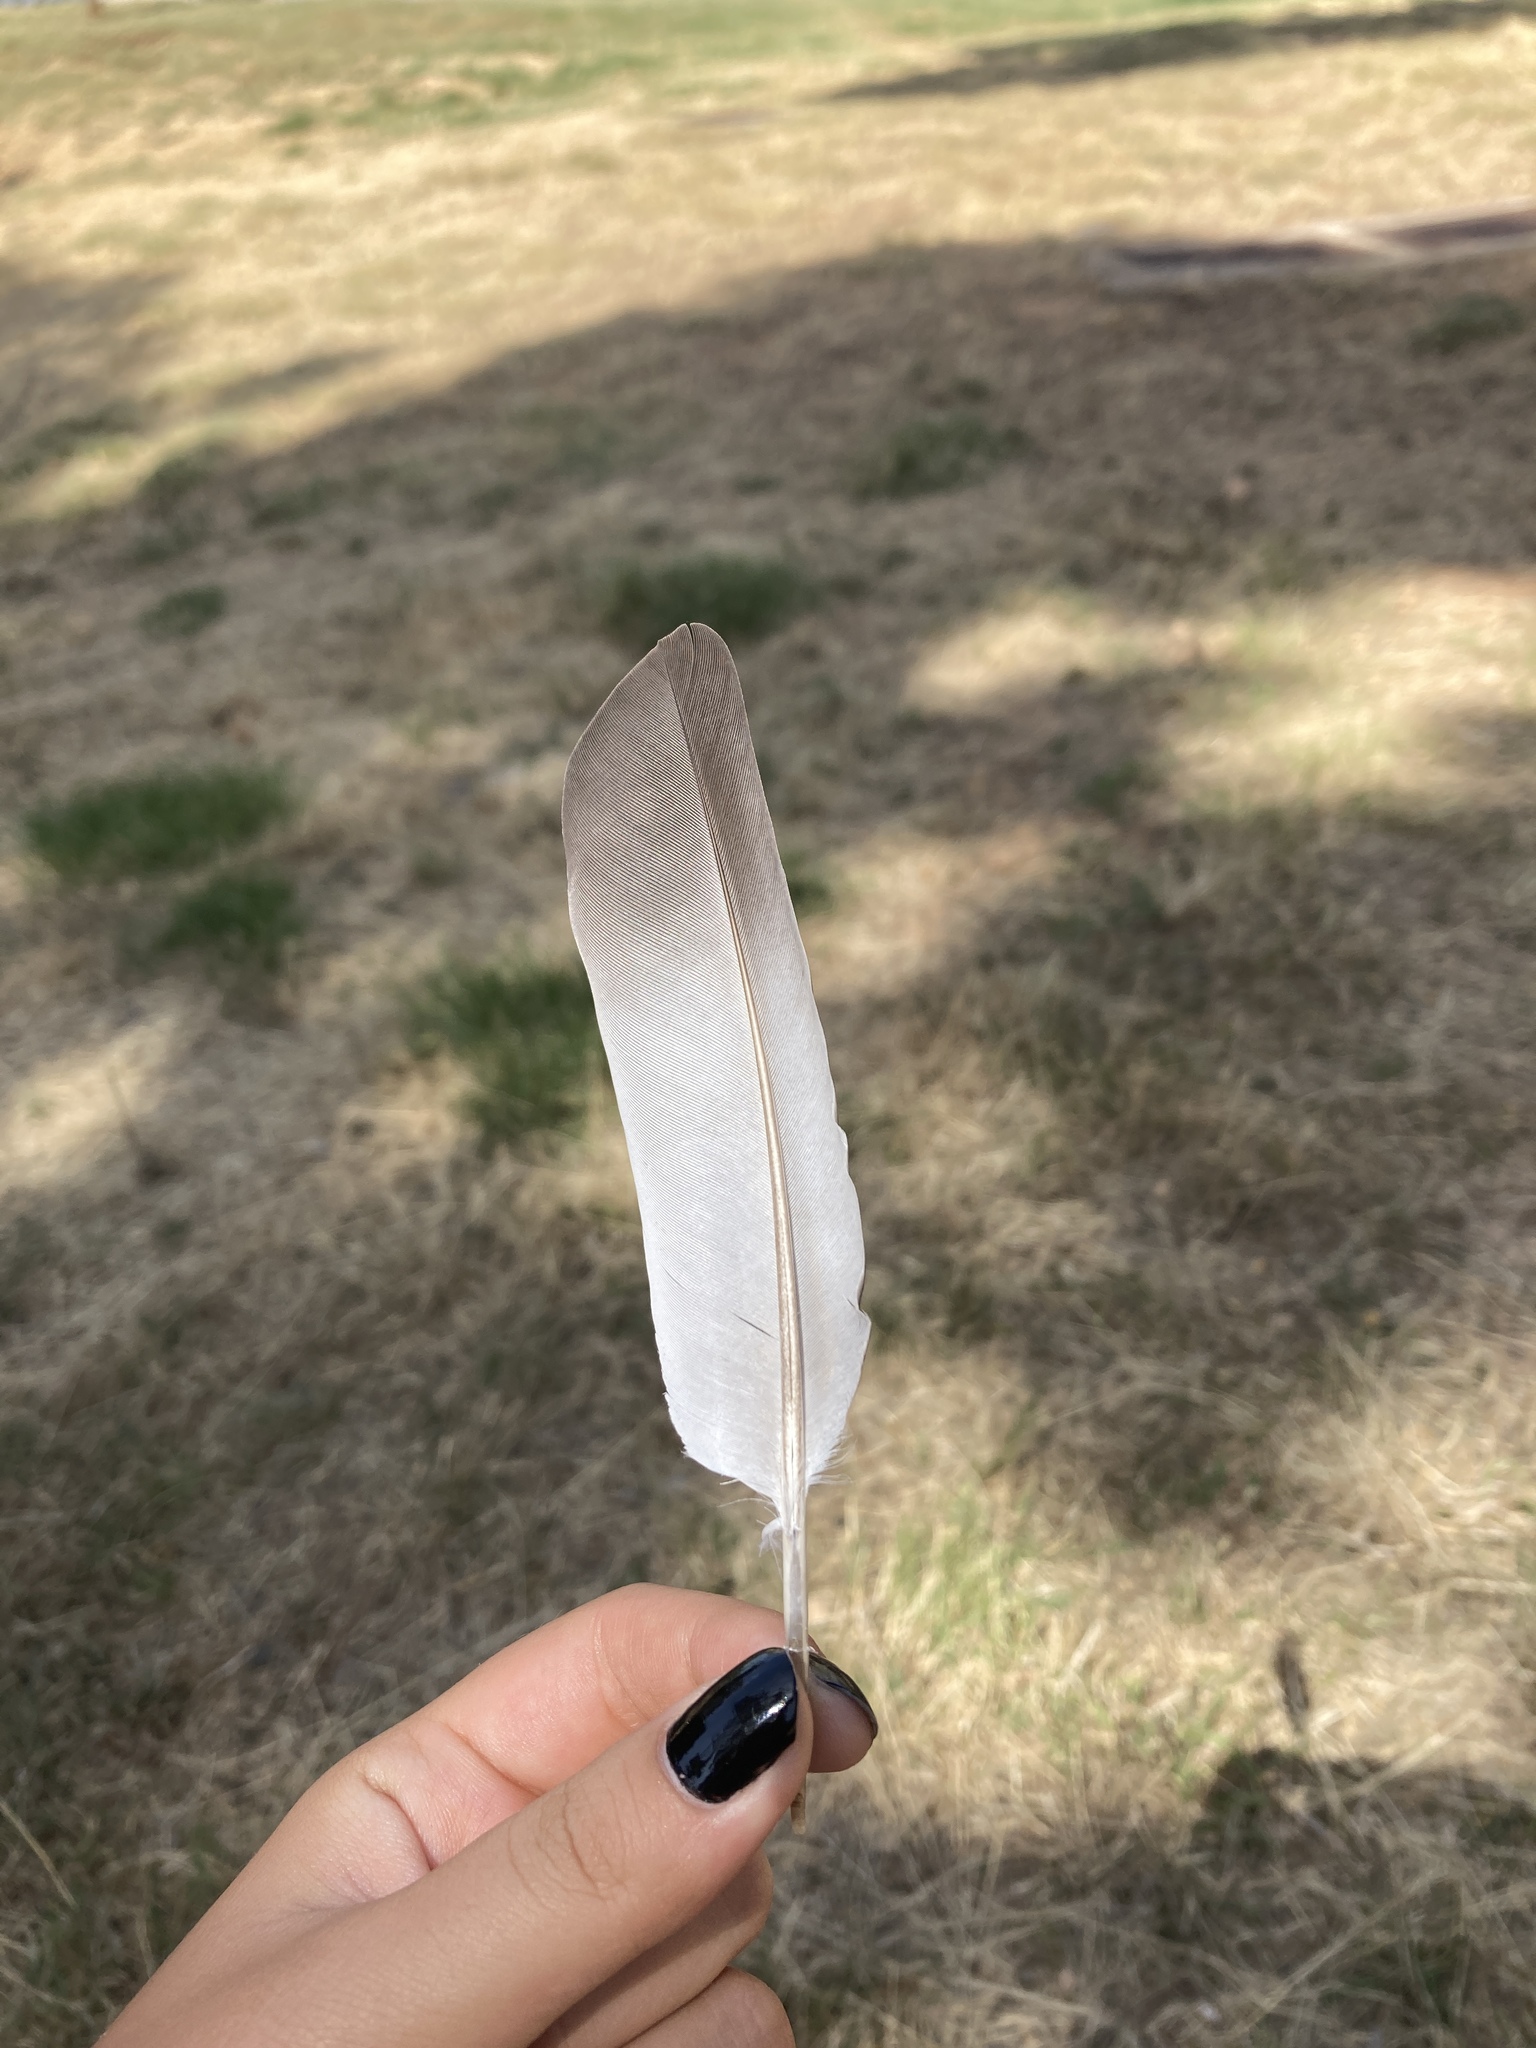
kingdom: Animalia
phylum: Chordata
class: Aves
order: Columbiformes
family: Columbidae
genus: Columba
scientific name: Columba livia
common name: Rock pigeon
